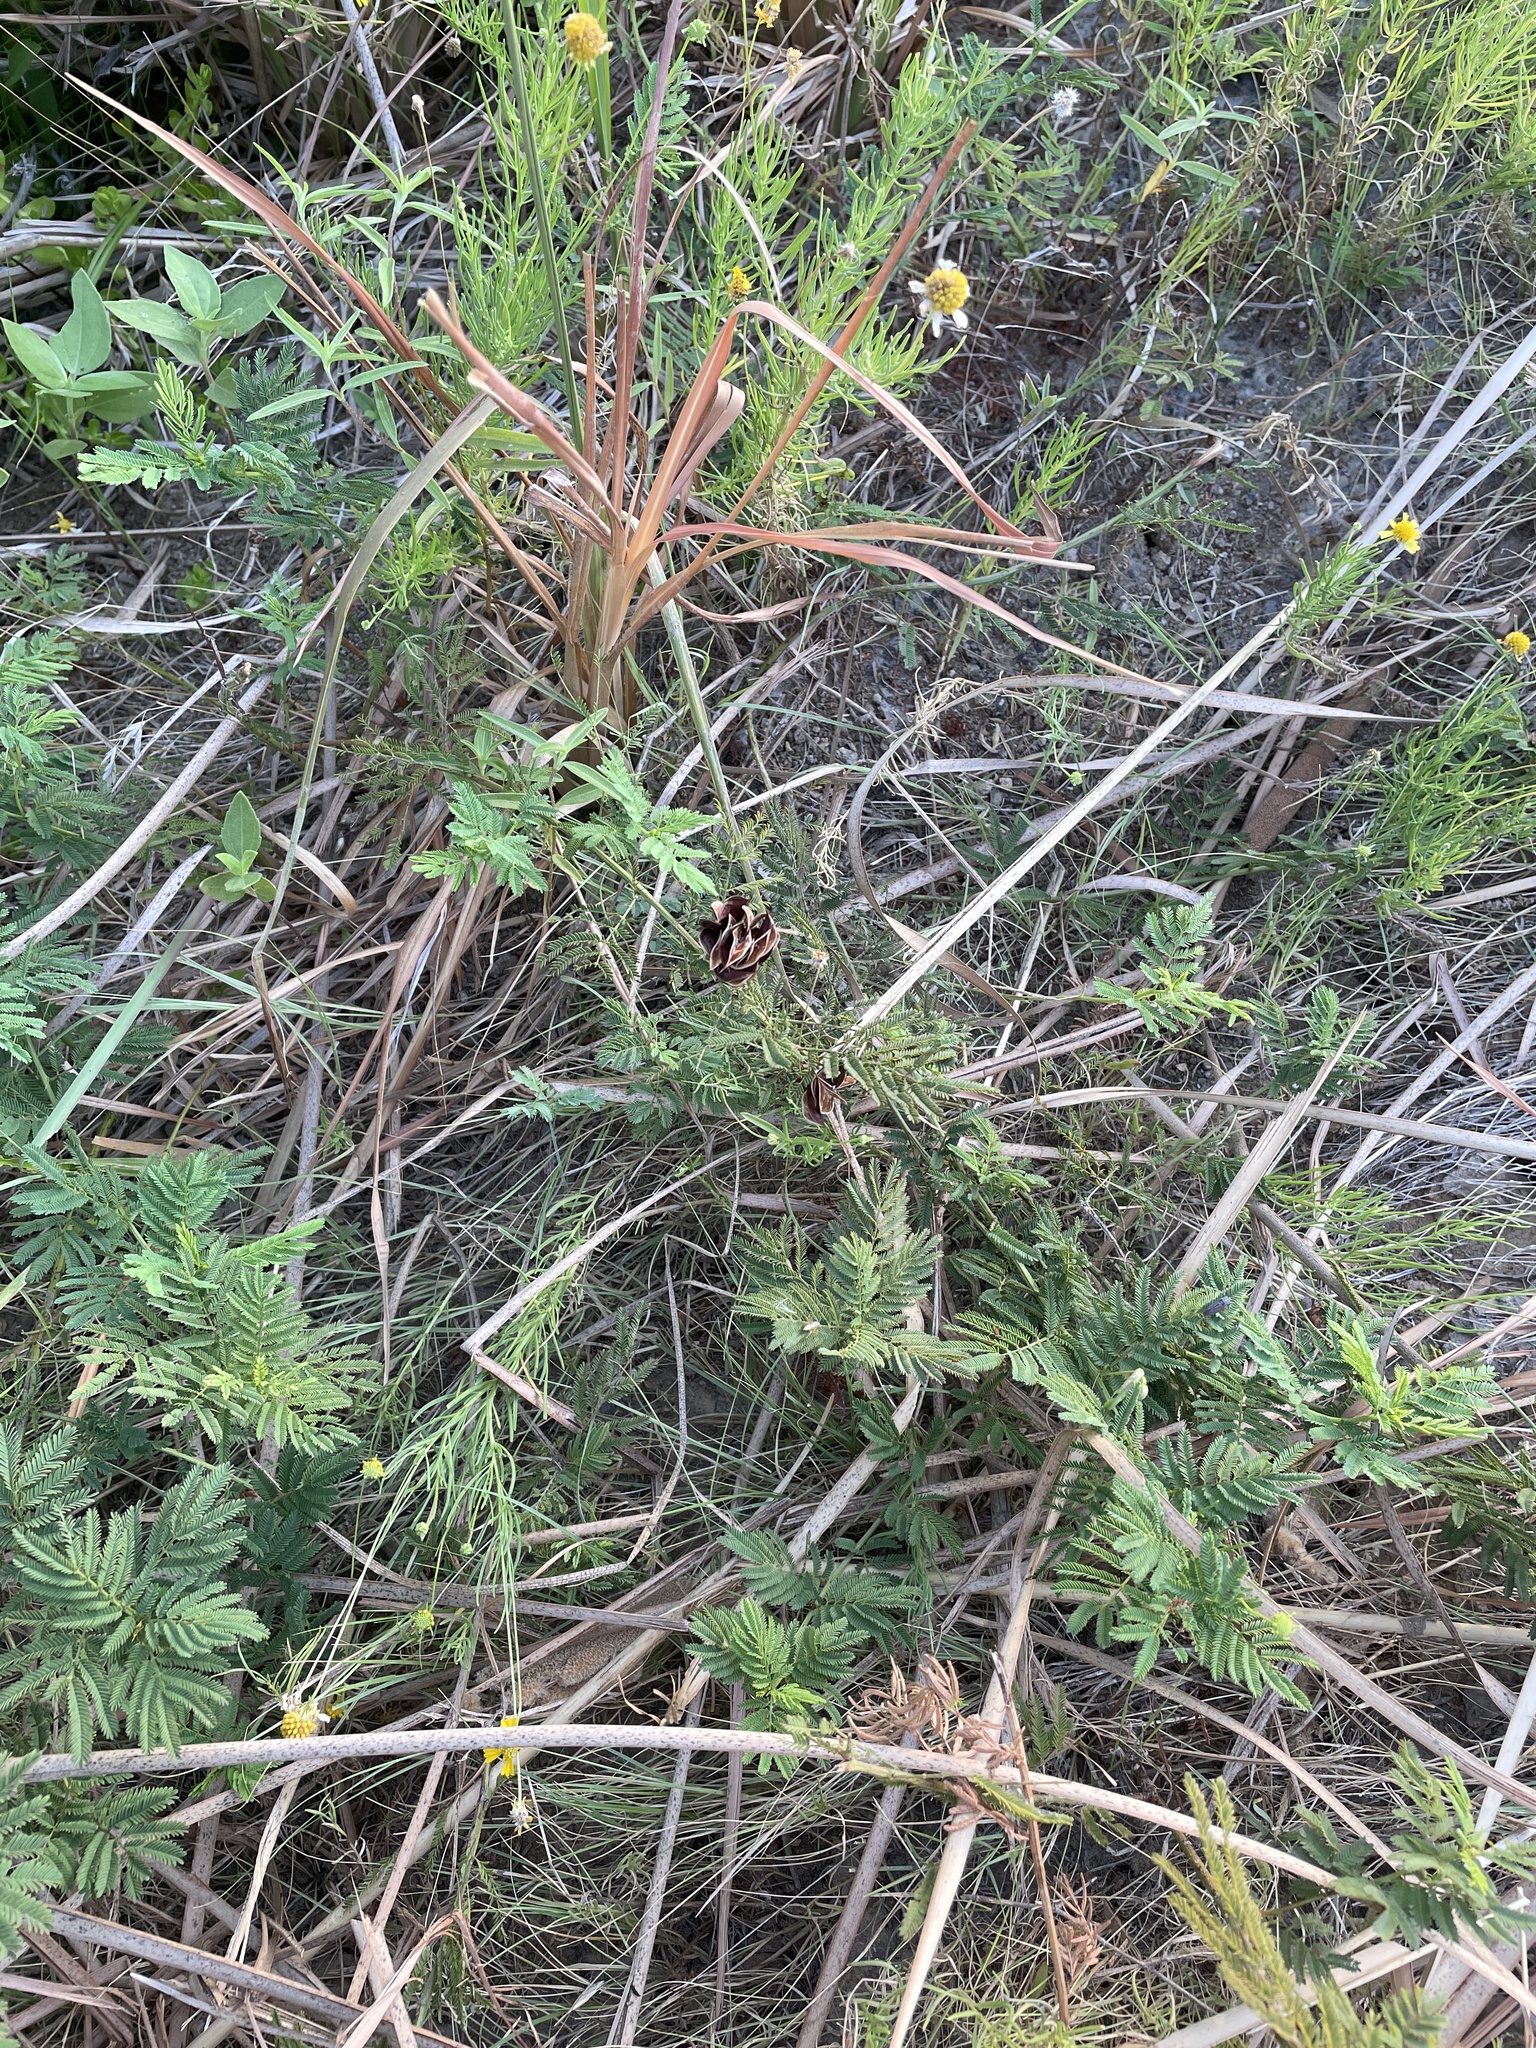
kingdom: Plantae
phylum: Tracheophyta
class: Magnoliopsida
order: Fabales
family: Fabaceae
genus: Desmanthus
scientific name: Desmanthus illinoensis
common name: Illinois bundle-flower
